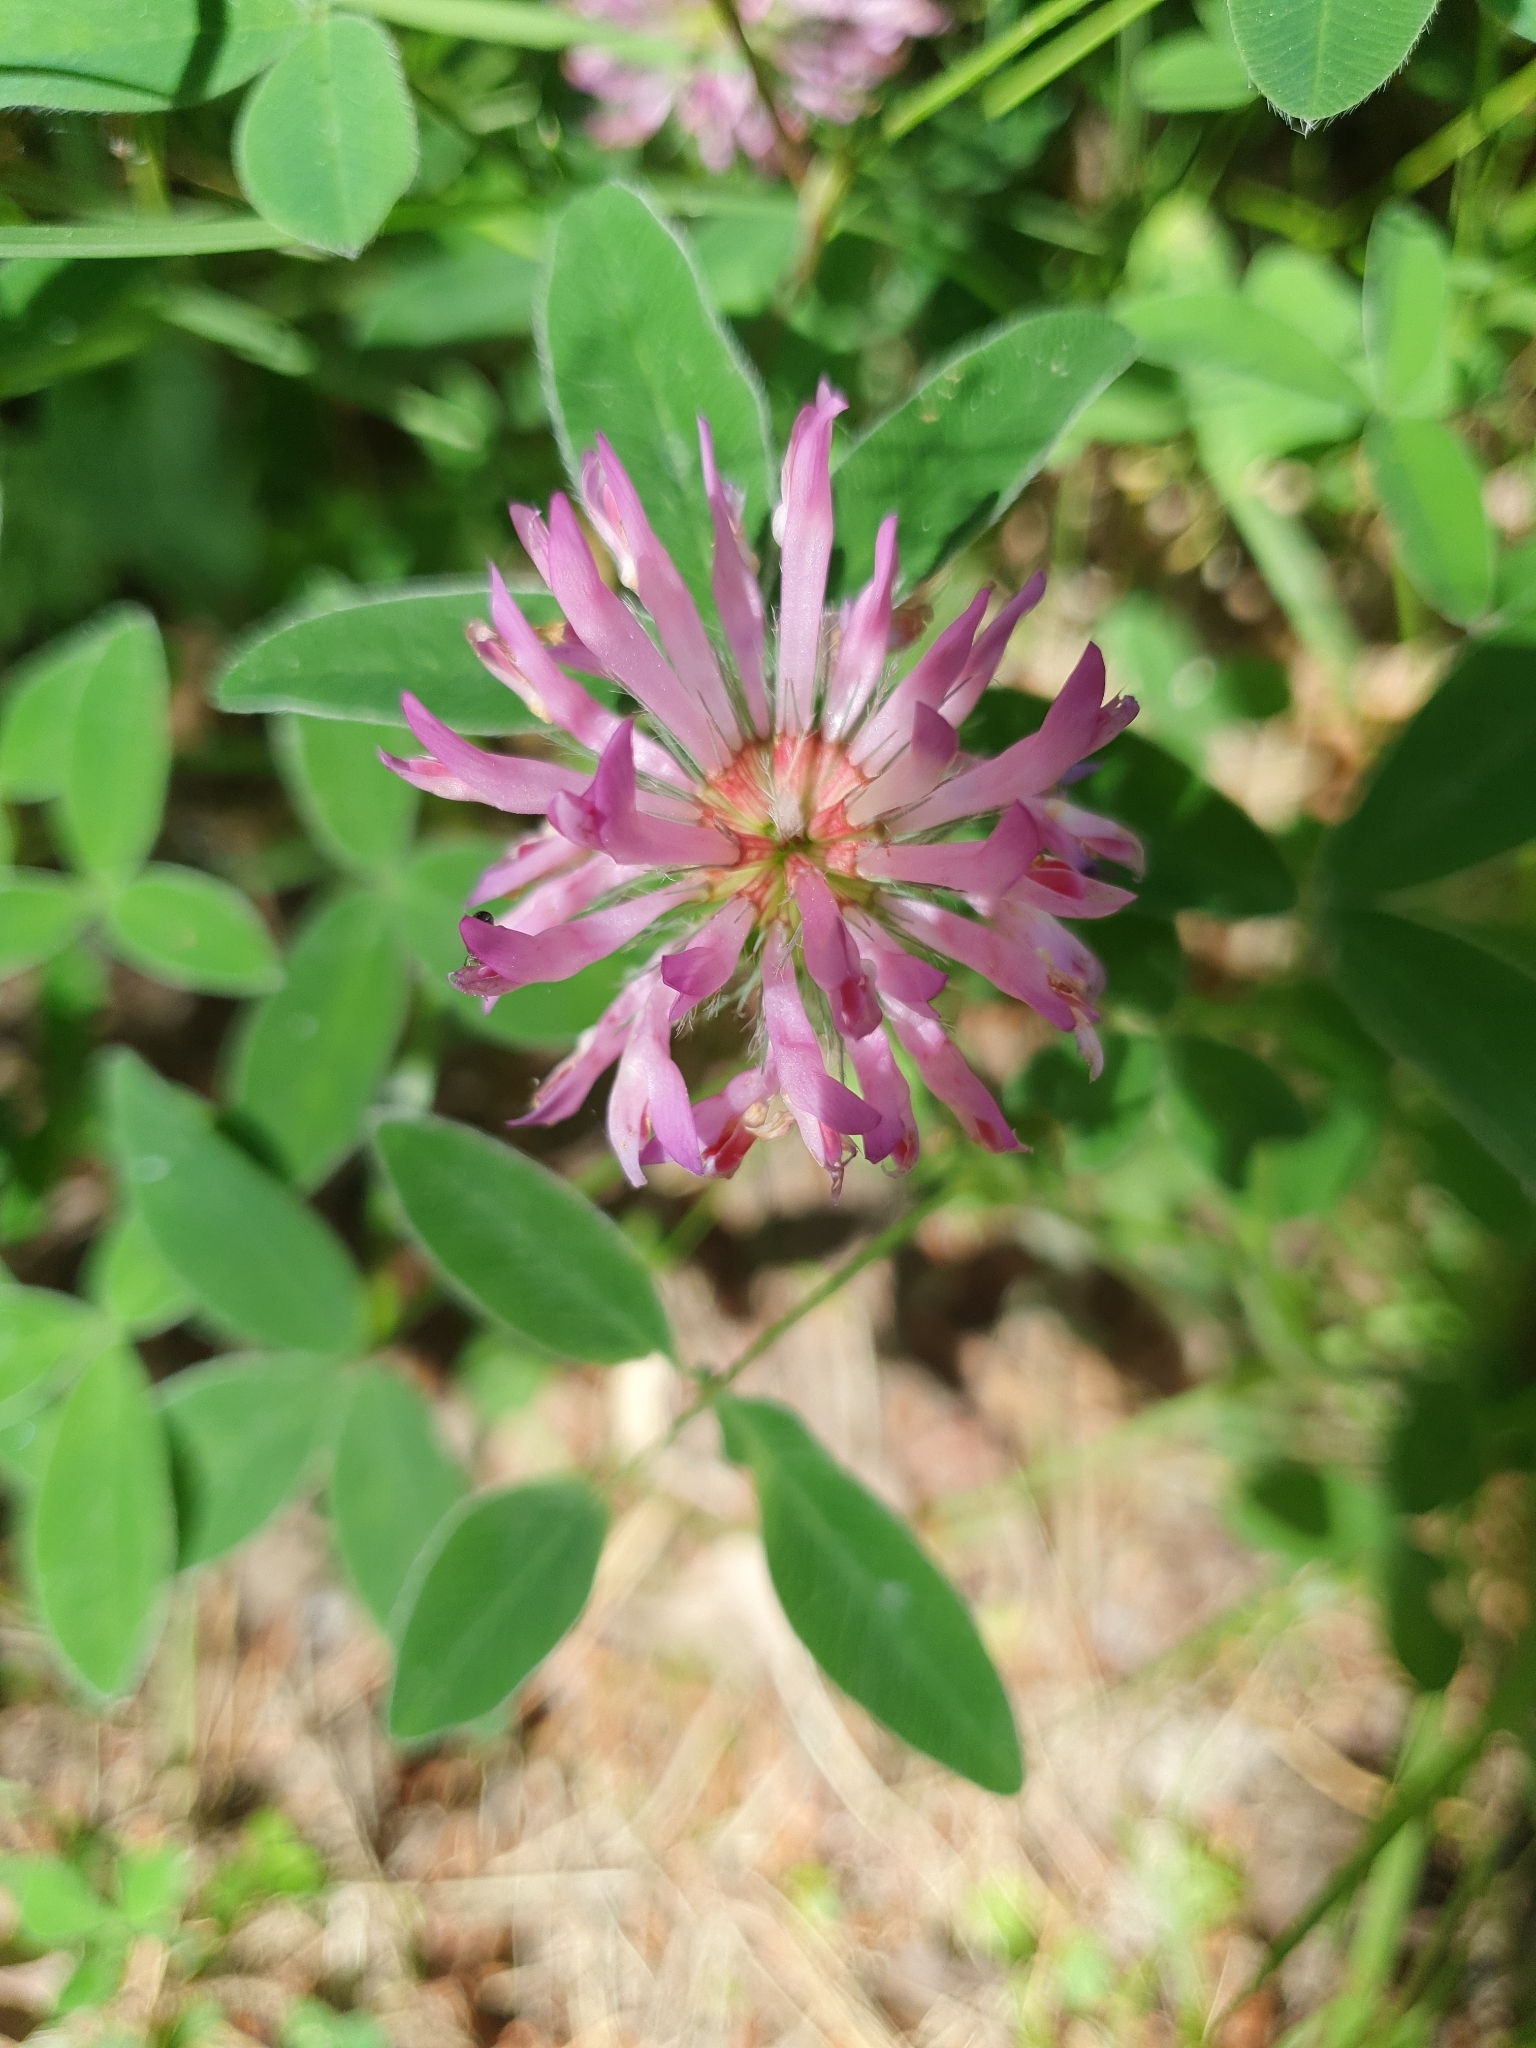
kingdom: Plantae
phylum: Tracheophyta
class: Magnoliopsida
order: Fabales
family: Fabaceae
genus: Trifolium
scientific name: Trifolium medium
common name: Zigzag clover
